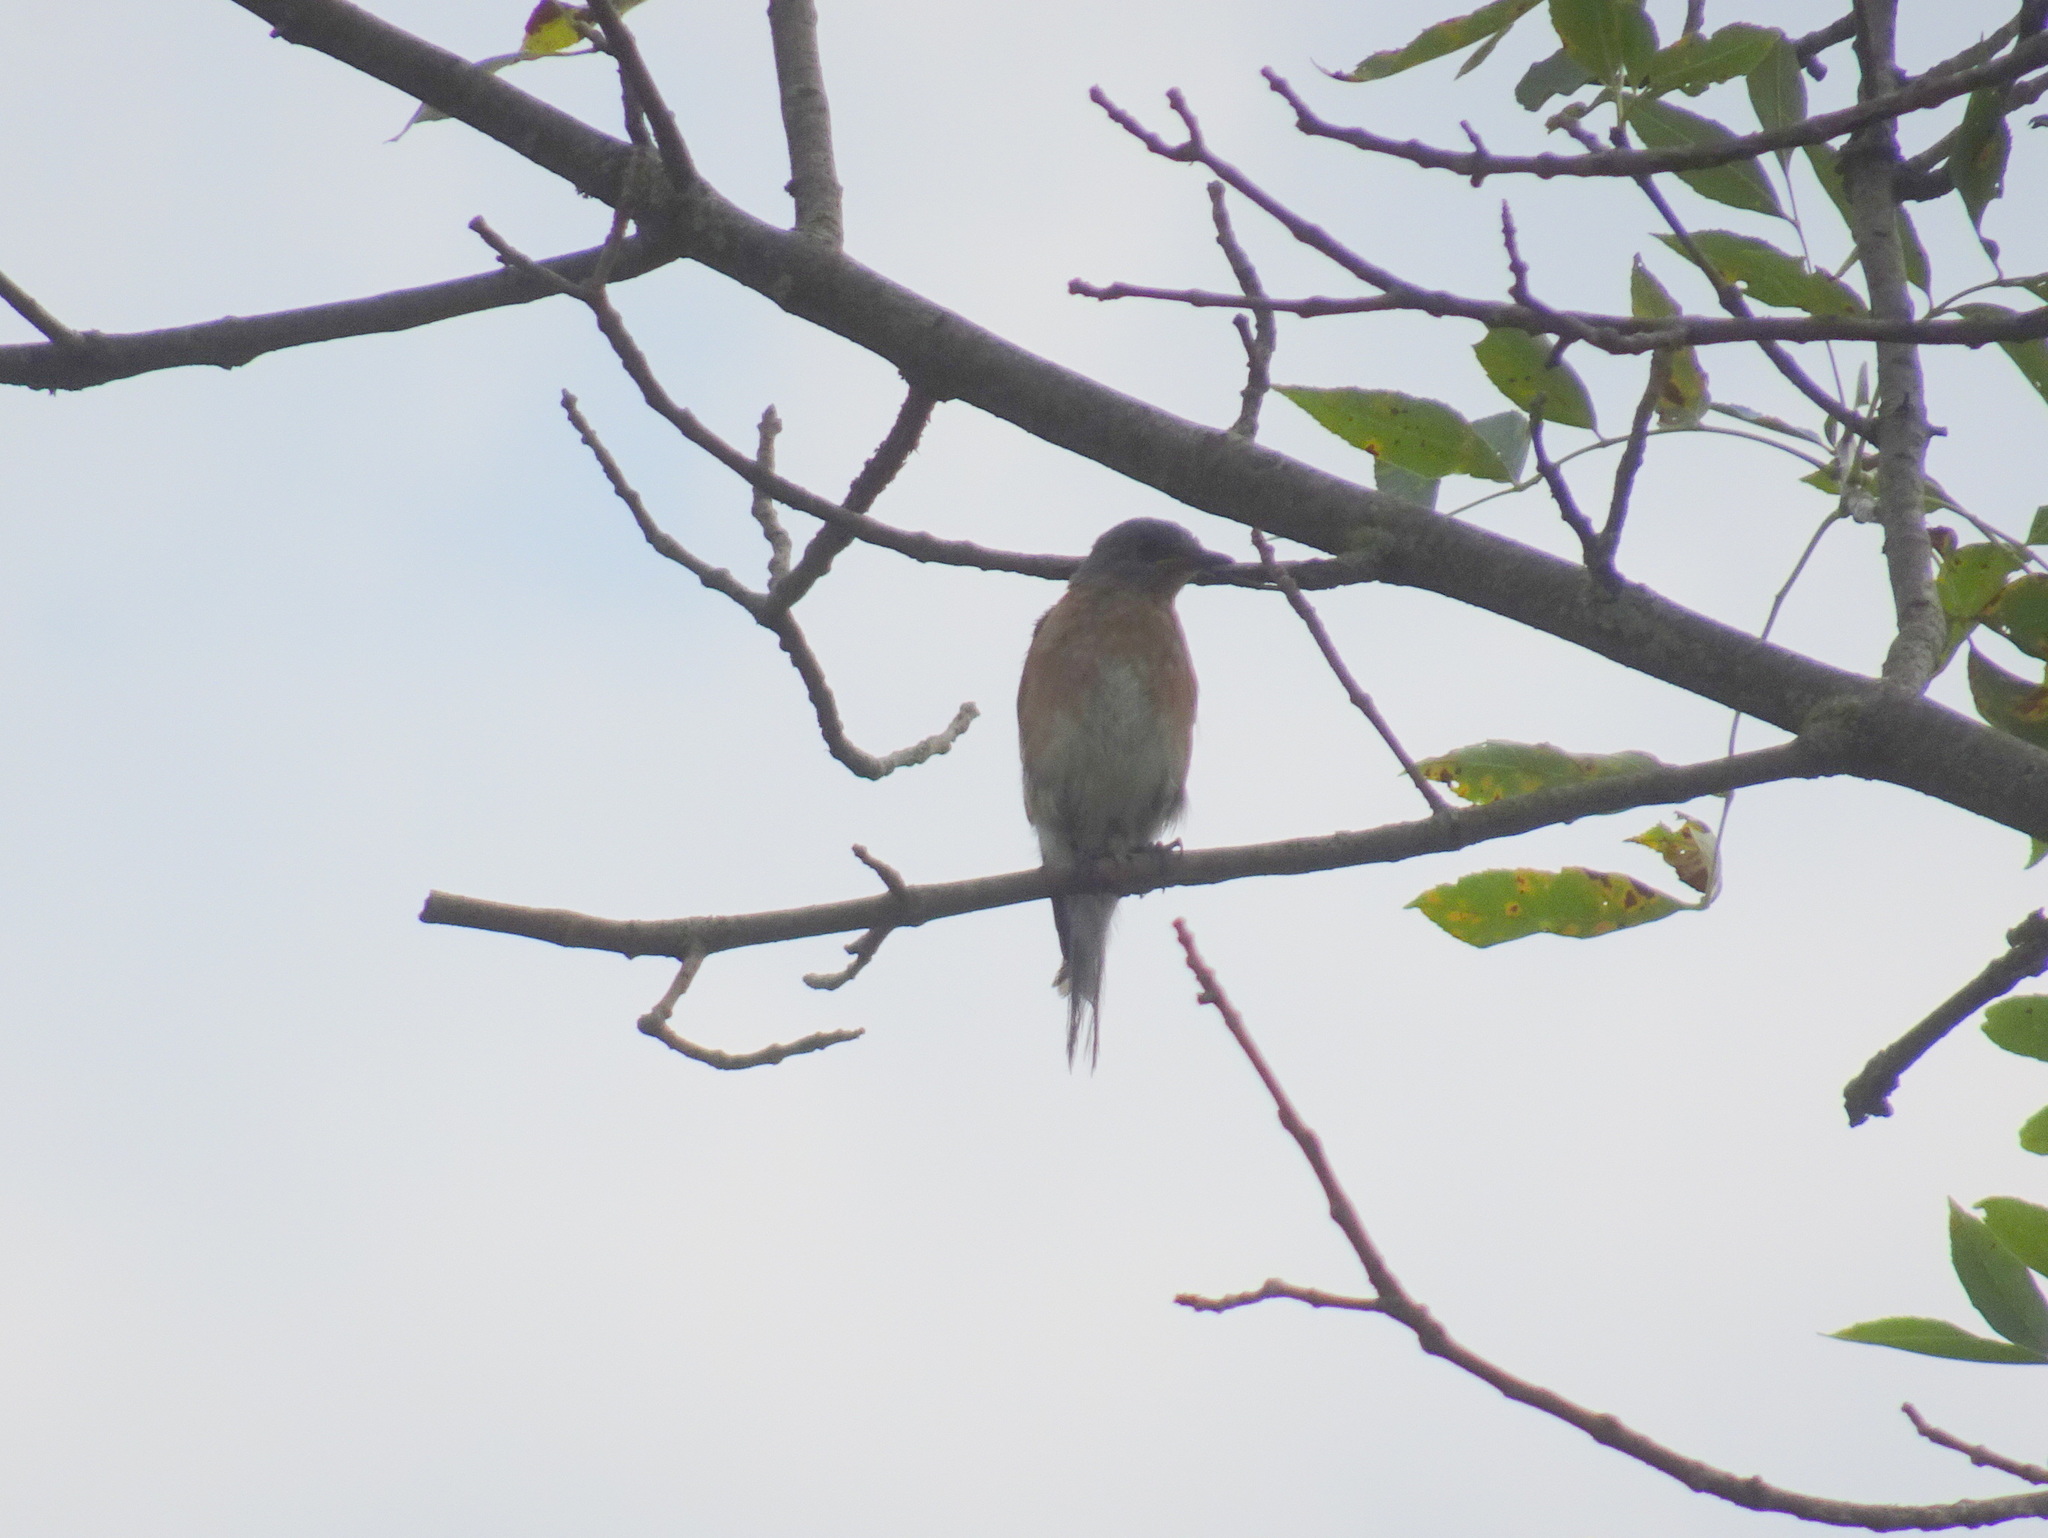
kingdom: Animalia
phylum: Chordata
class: Aves
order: Passeriformes
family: Turdidae
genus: Sialia
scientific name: Sialia sialis
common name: Eastern bluebird
